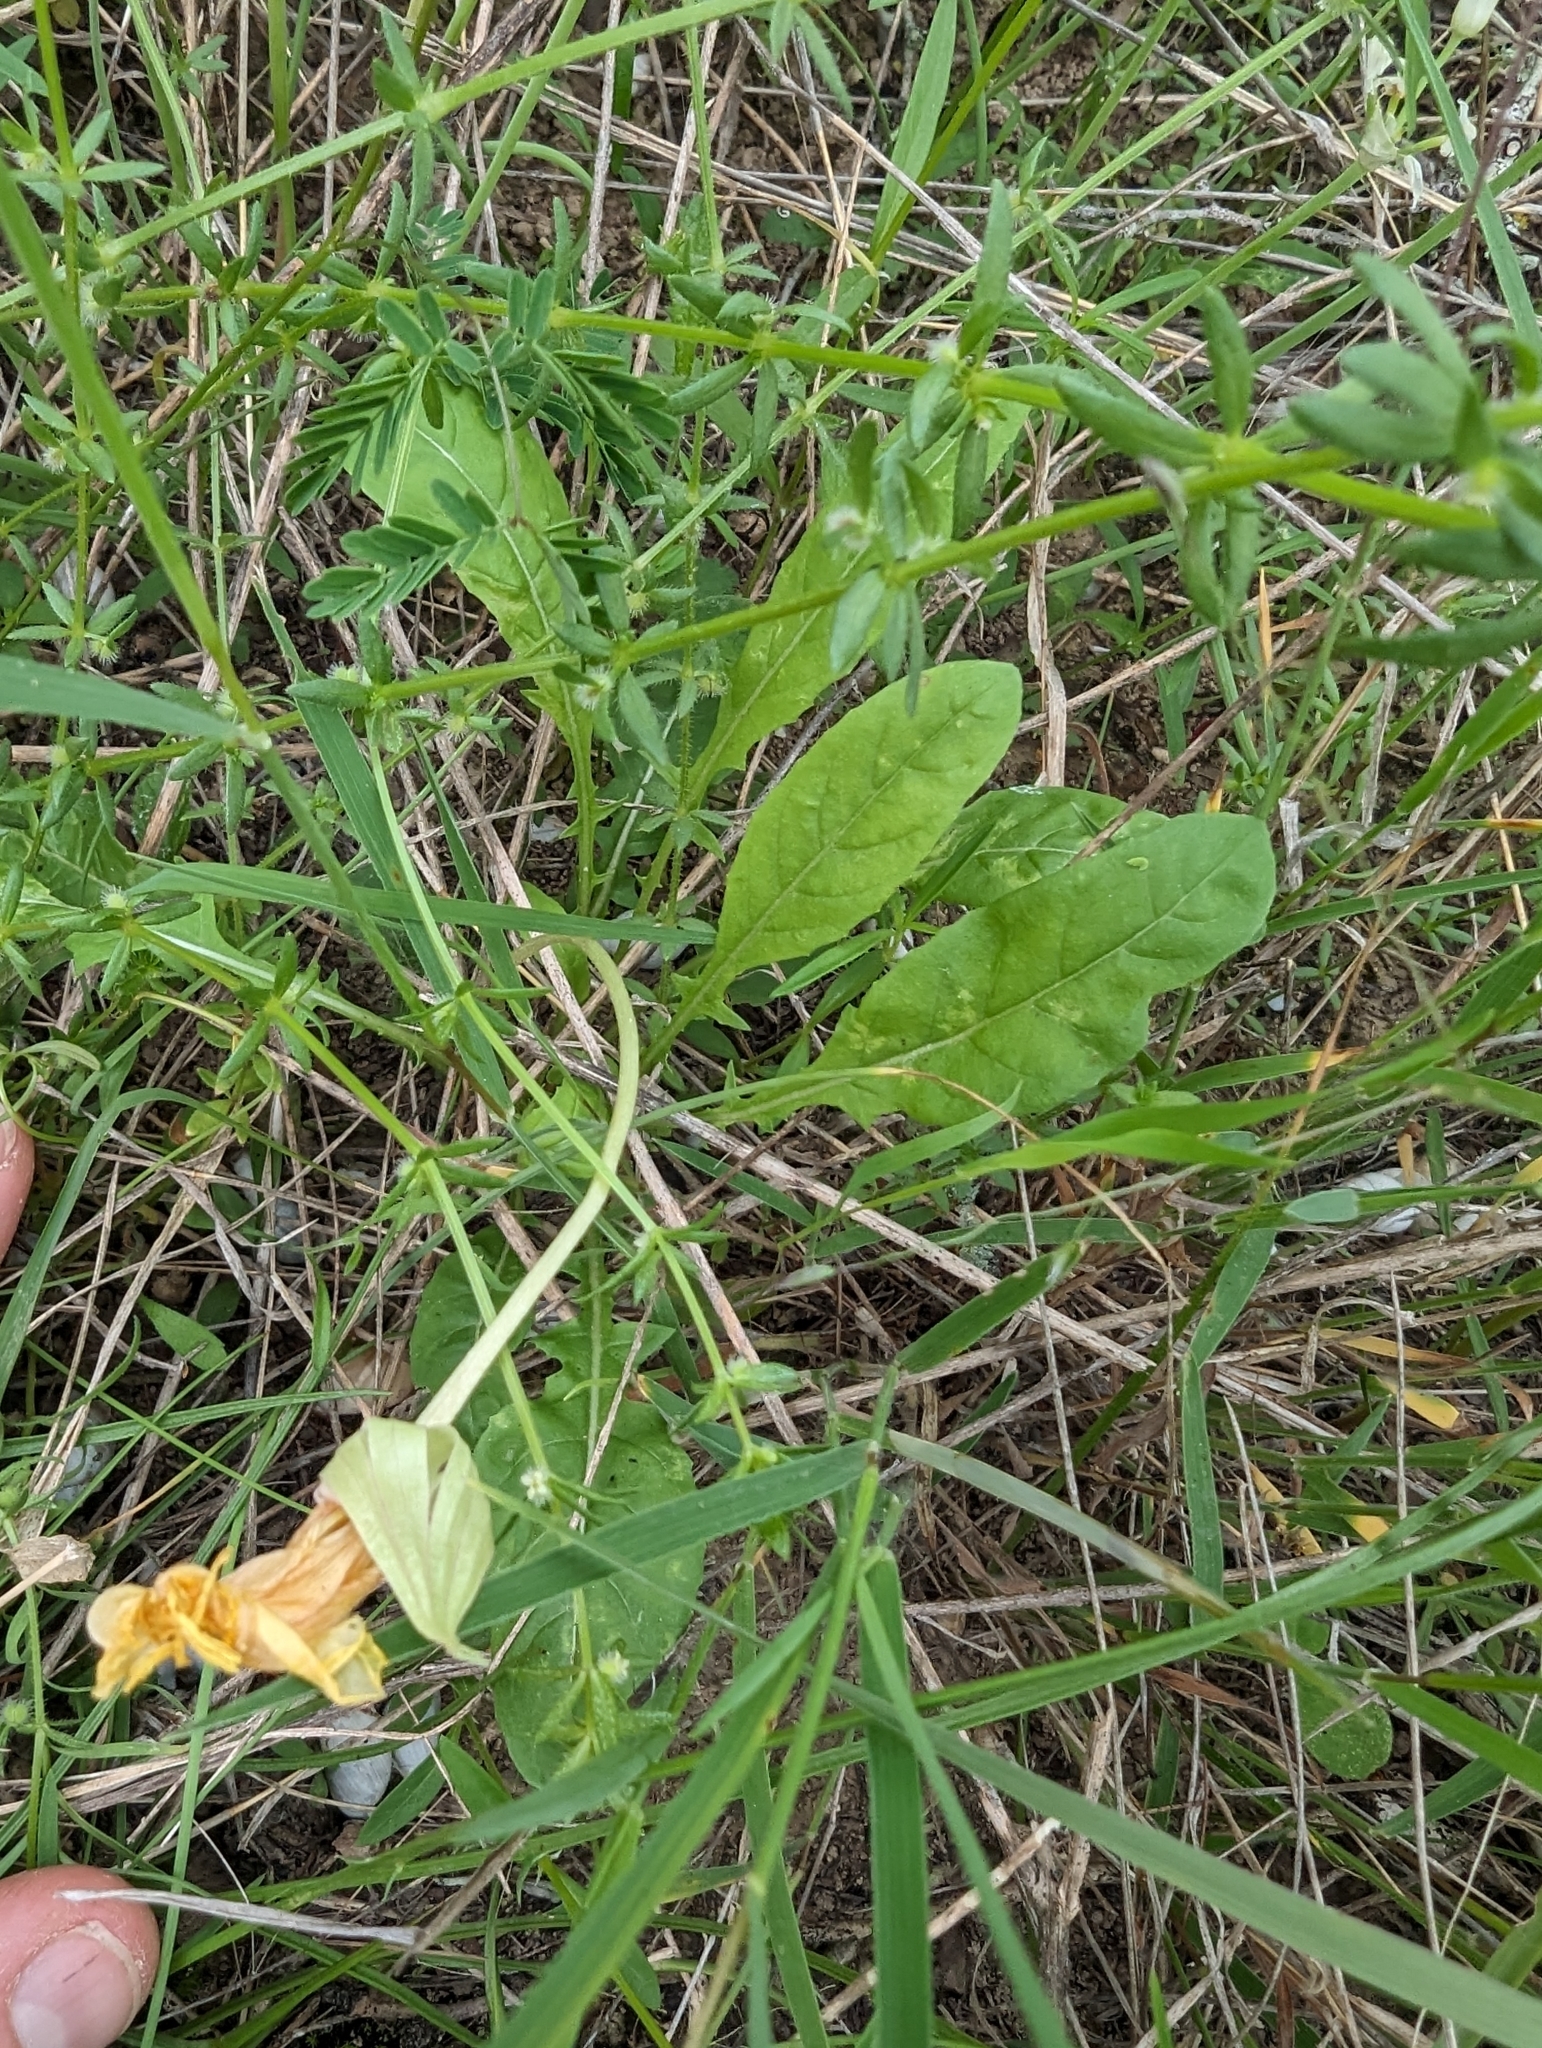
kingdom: Plantae
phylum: Tracheophyta
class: Magnoliopsida
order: Myrtales
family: Onagraceae
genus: Oenothera
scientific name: Oenothera triloba
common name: Sessile evening-primrose
